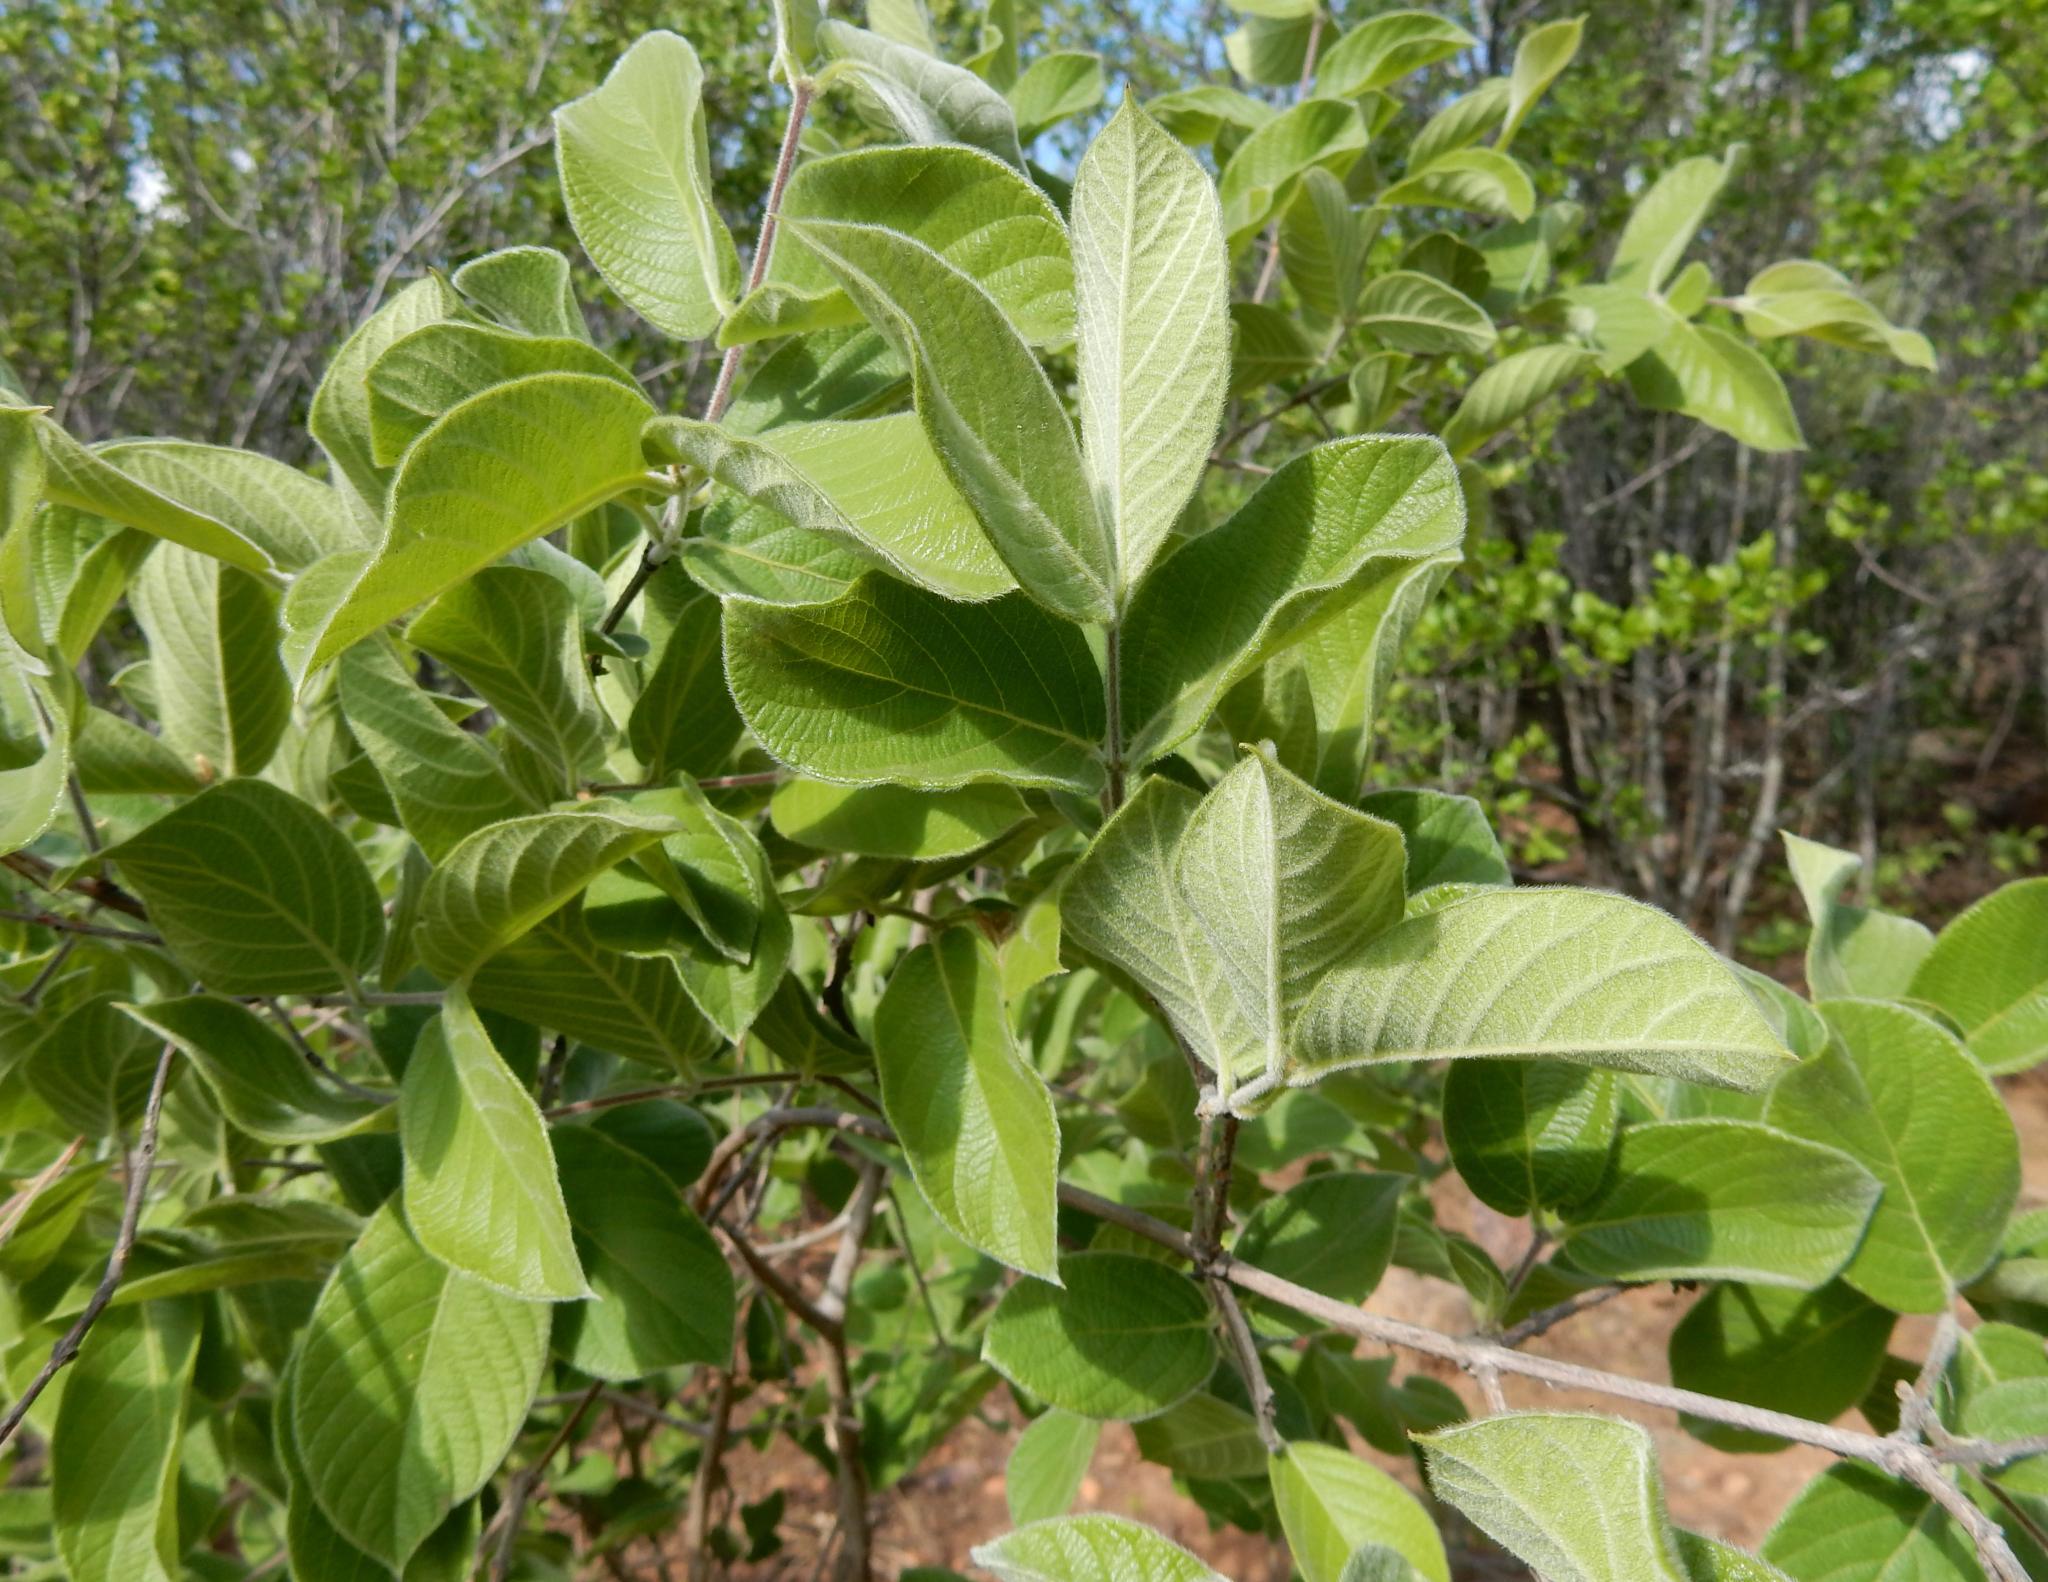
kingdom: Plantae
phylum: Tracheophyta
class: Magnoliopsida
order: Myrtales
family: Combretaceae
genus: Combretum
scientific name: Combretum molle
